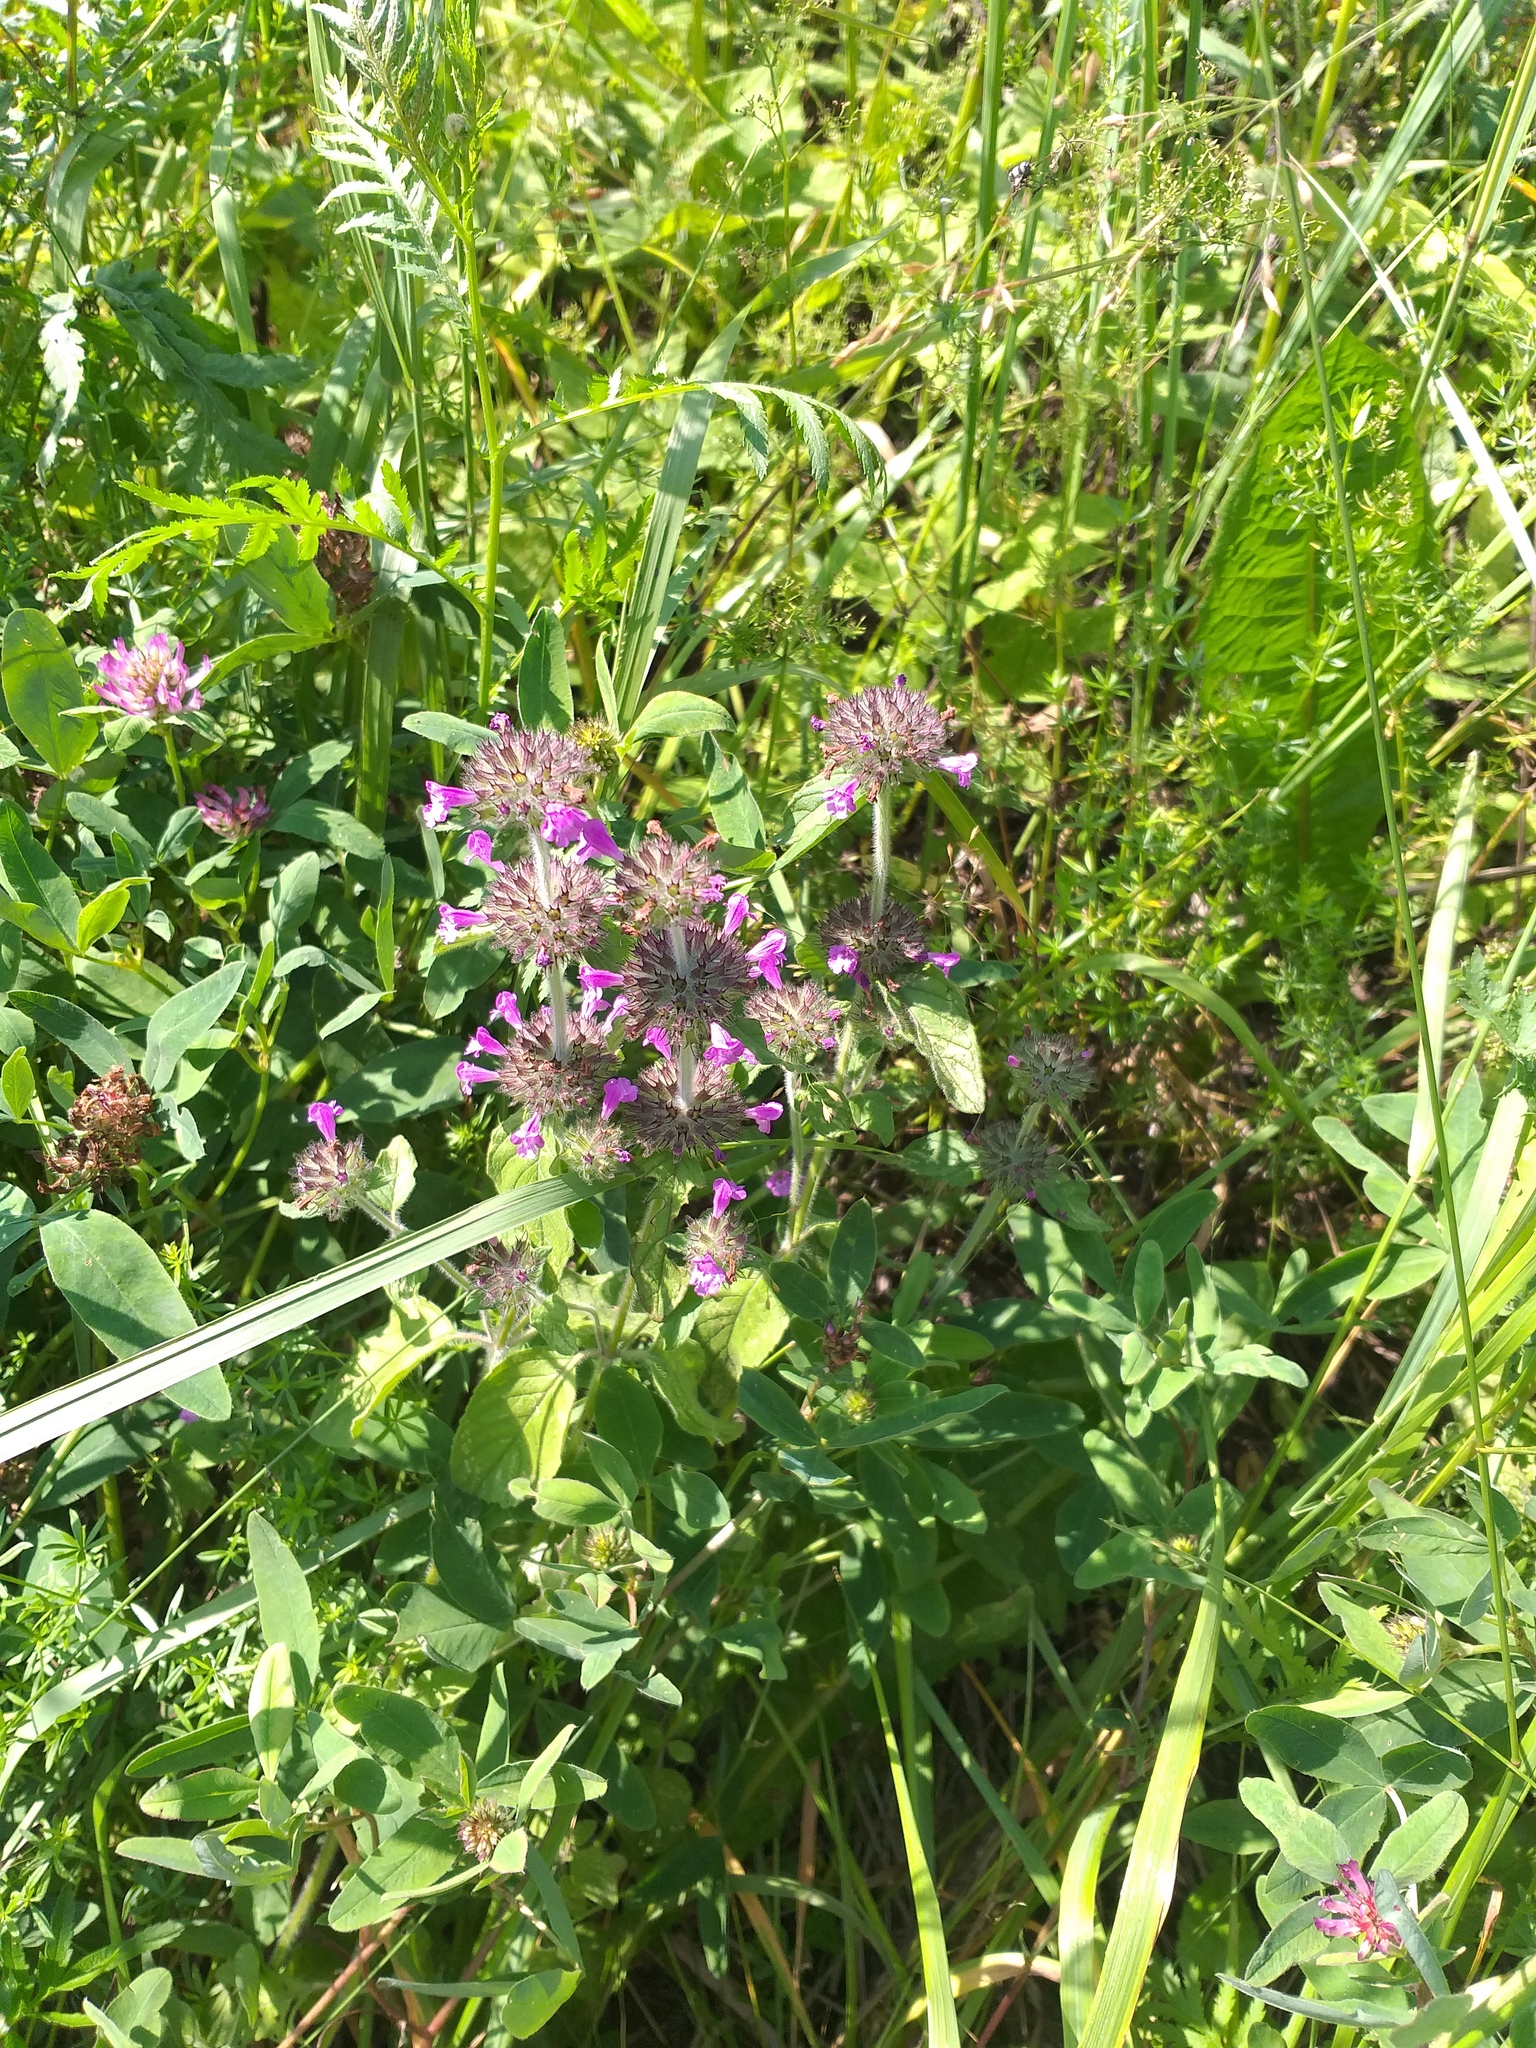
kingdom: Plantae
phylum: Tracheophyta
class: Magnoliopsida
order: Lamiales
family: Lamiaceae
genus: Clinopodium
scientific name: Clinopodium vulgare
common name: Wild basil
